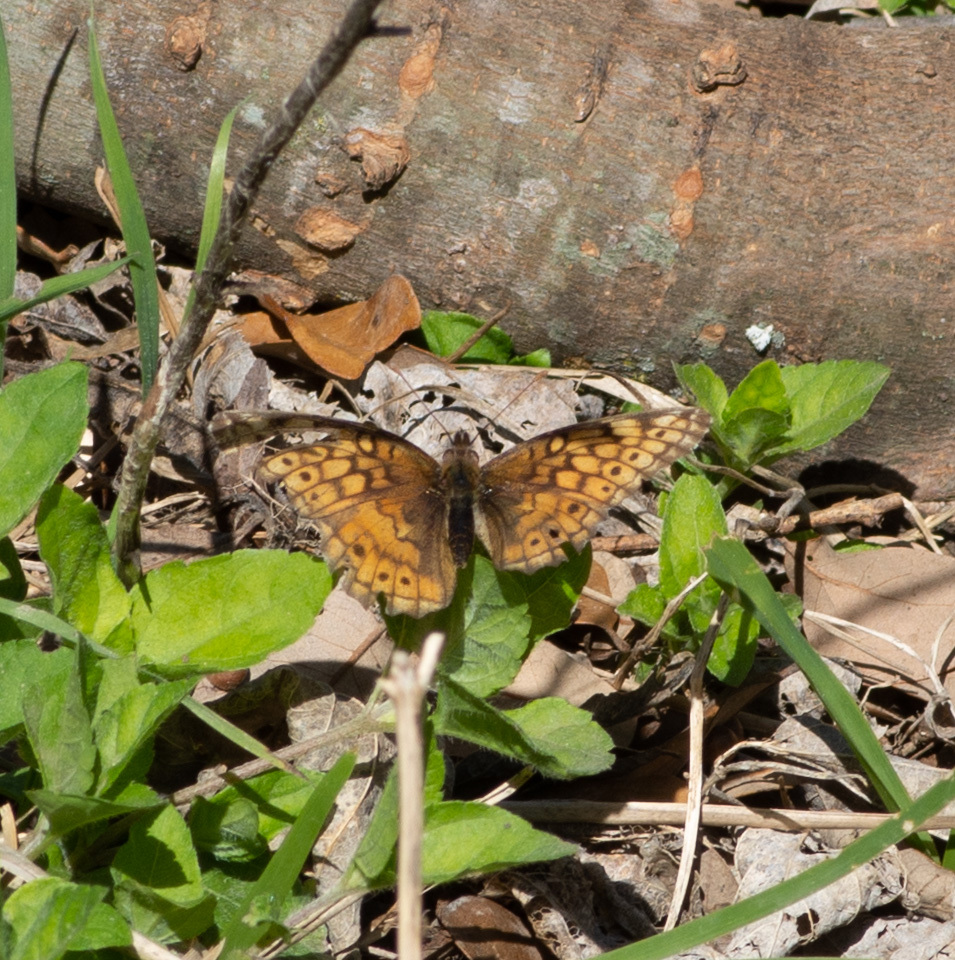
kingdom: Animalia
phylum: Arthropoda
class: Insecta
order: Lepidoptera
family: Nymphalidae
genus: Euptoieta
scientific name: Euptoieta claudia
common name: Variegated fritillary
